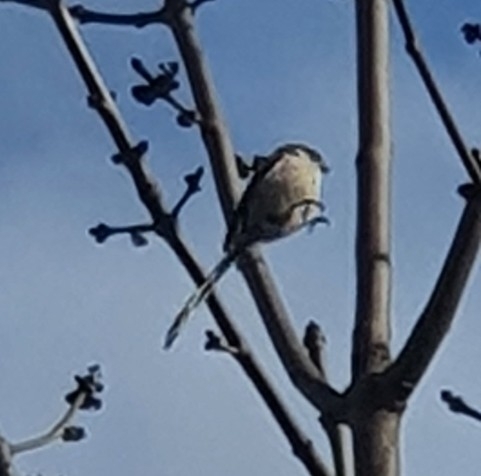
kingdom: Animalia
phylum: Chordata
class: Aves
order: Passeriformes
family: Aegithalidae
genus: Aegithalos
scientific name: Aegithalos caudatus
